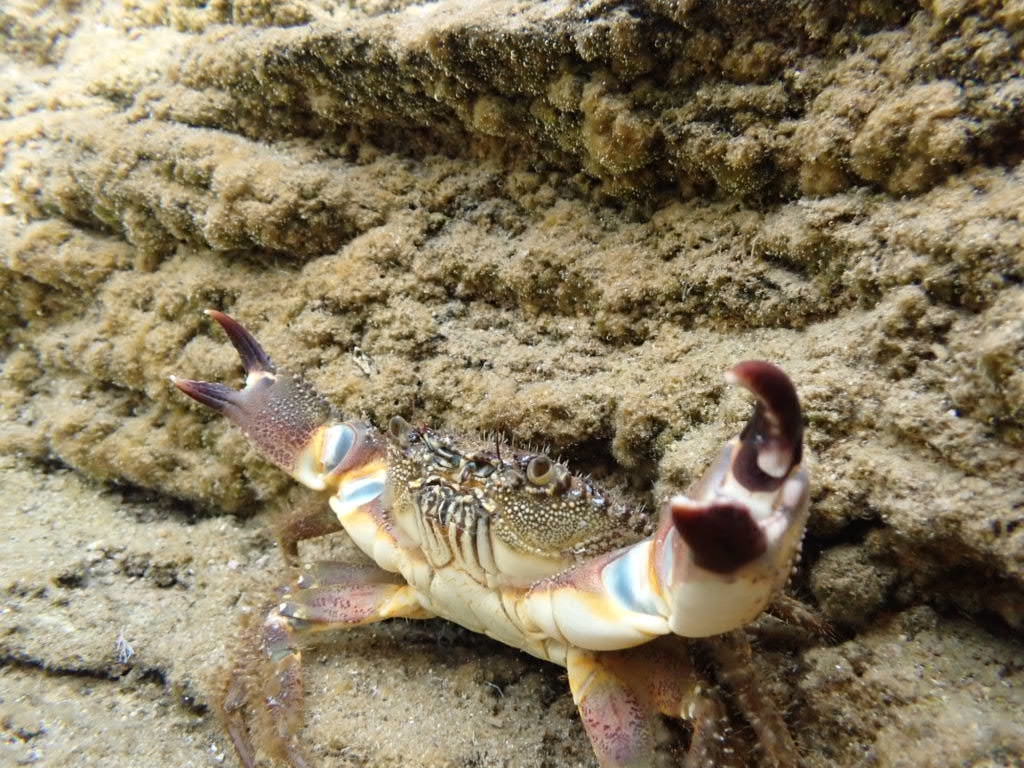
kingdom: Animalia
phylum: Arthropoda
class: Malacostraca
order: Decapoda
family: Eriphiidae
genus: Eriphia
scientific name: Eriphia verrucosa
